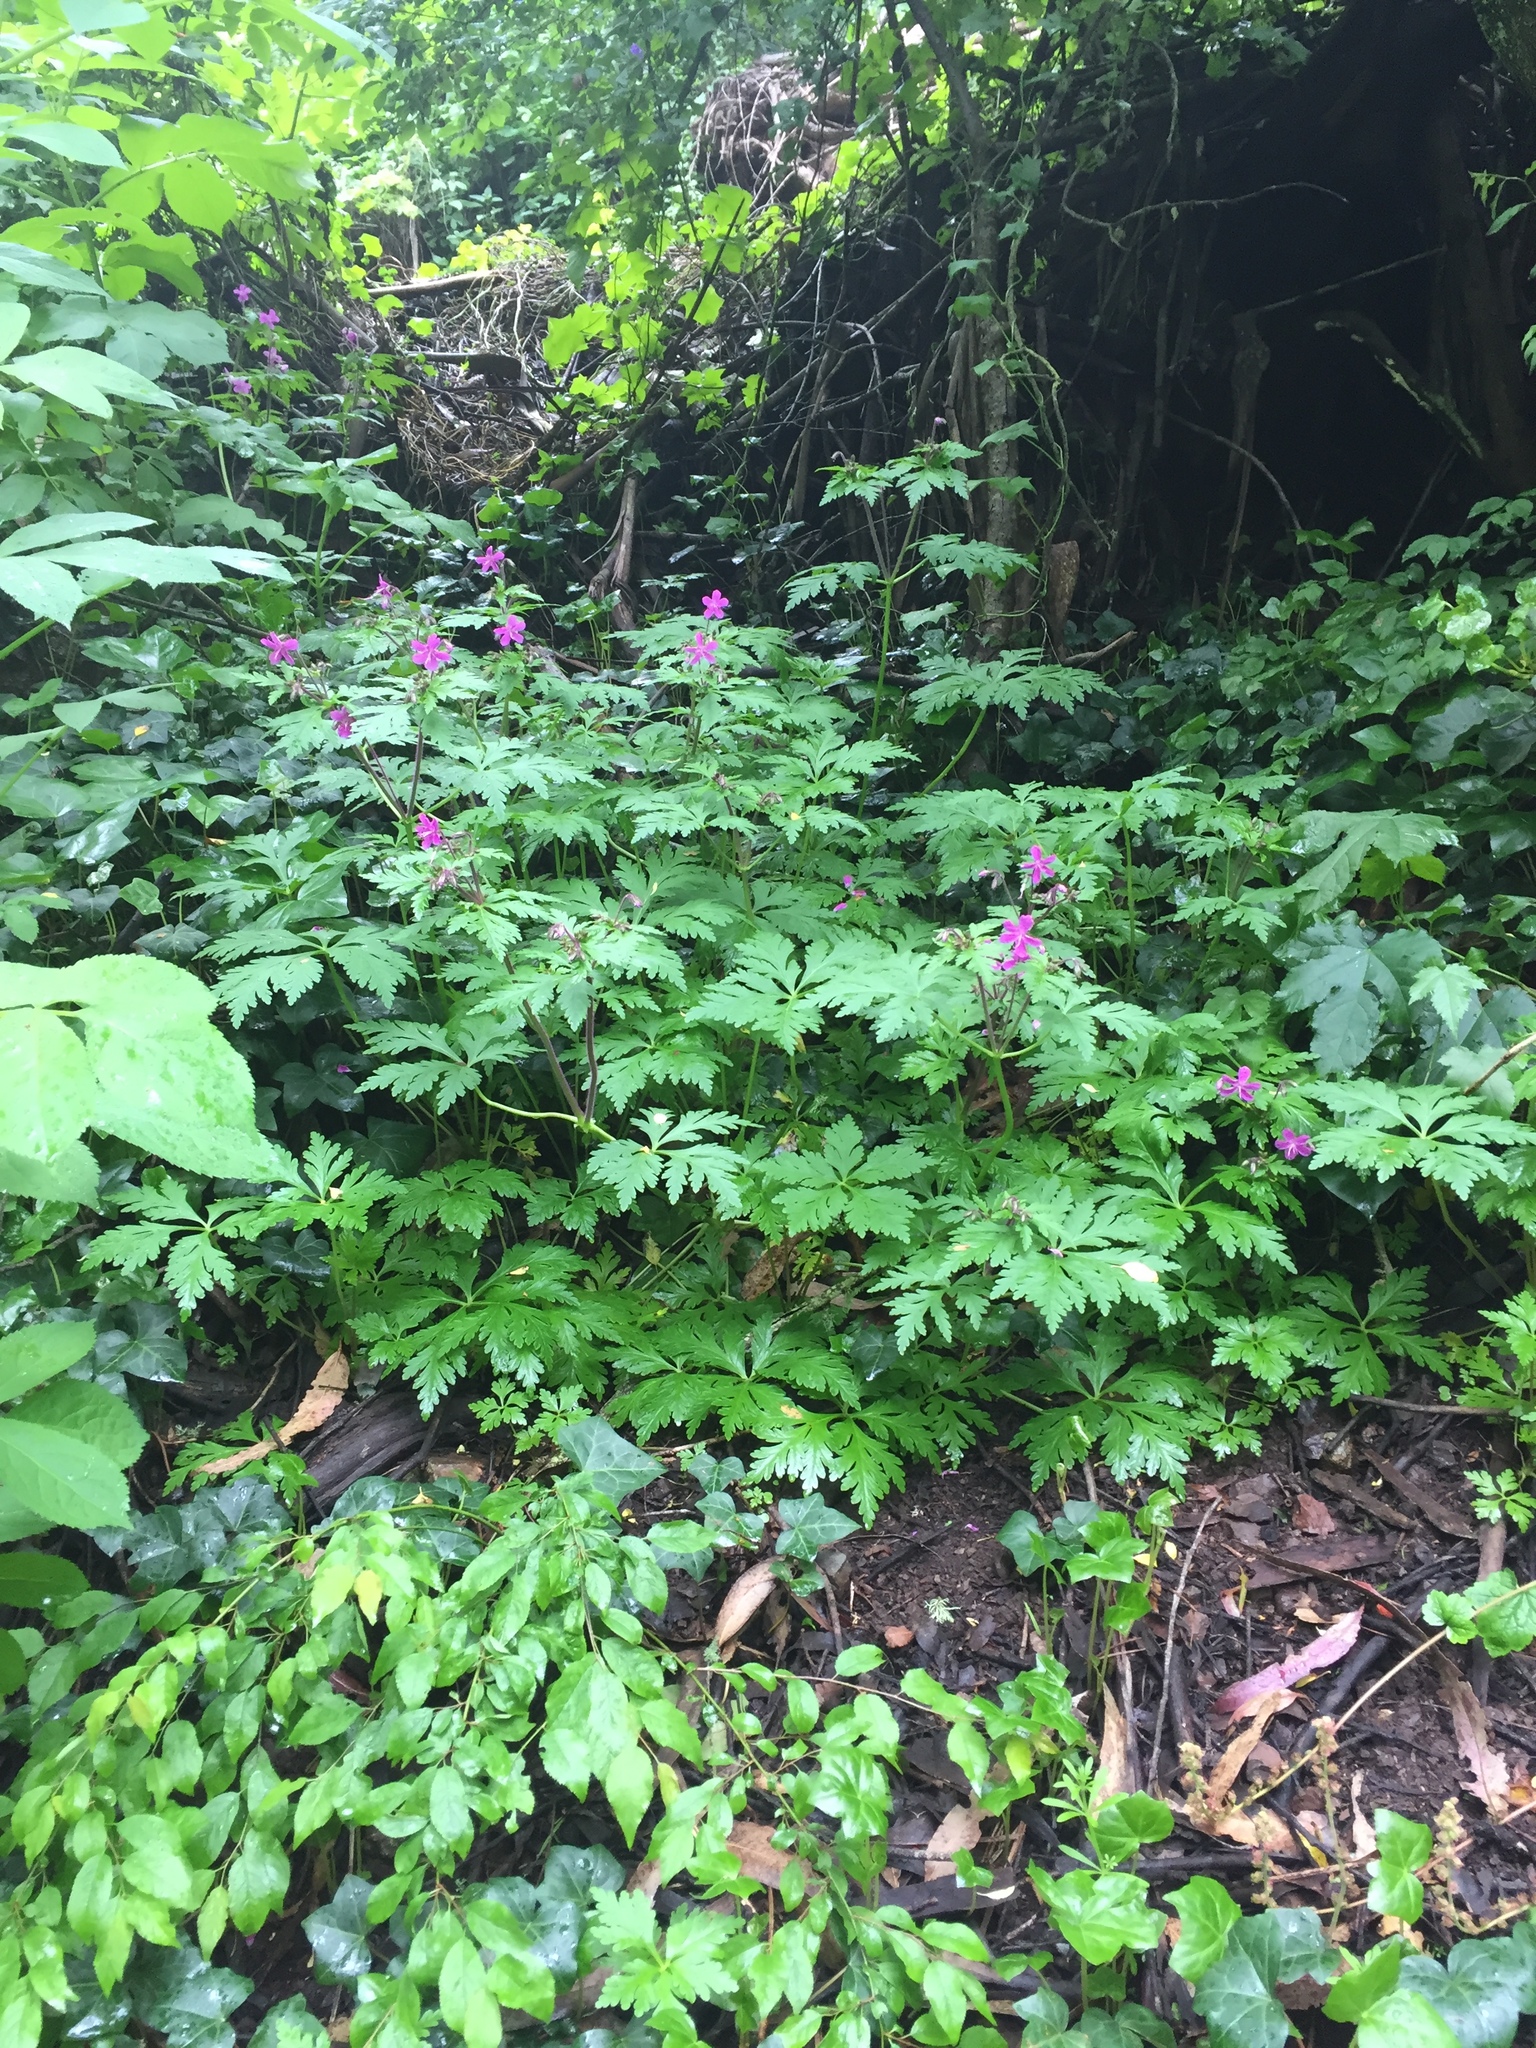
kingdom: Plantae
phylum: Tracheophyta
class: Magnoliopsida
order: Geraniales
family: Geraniaceae
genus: Geranium
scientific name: Geranium reuteri
